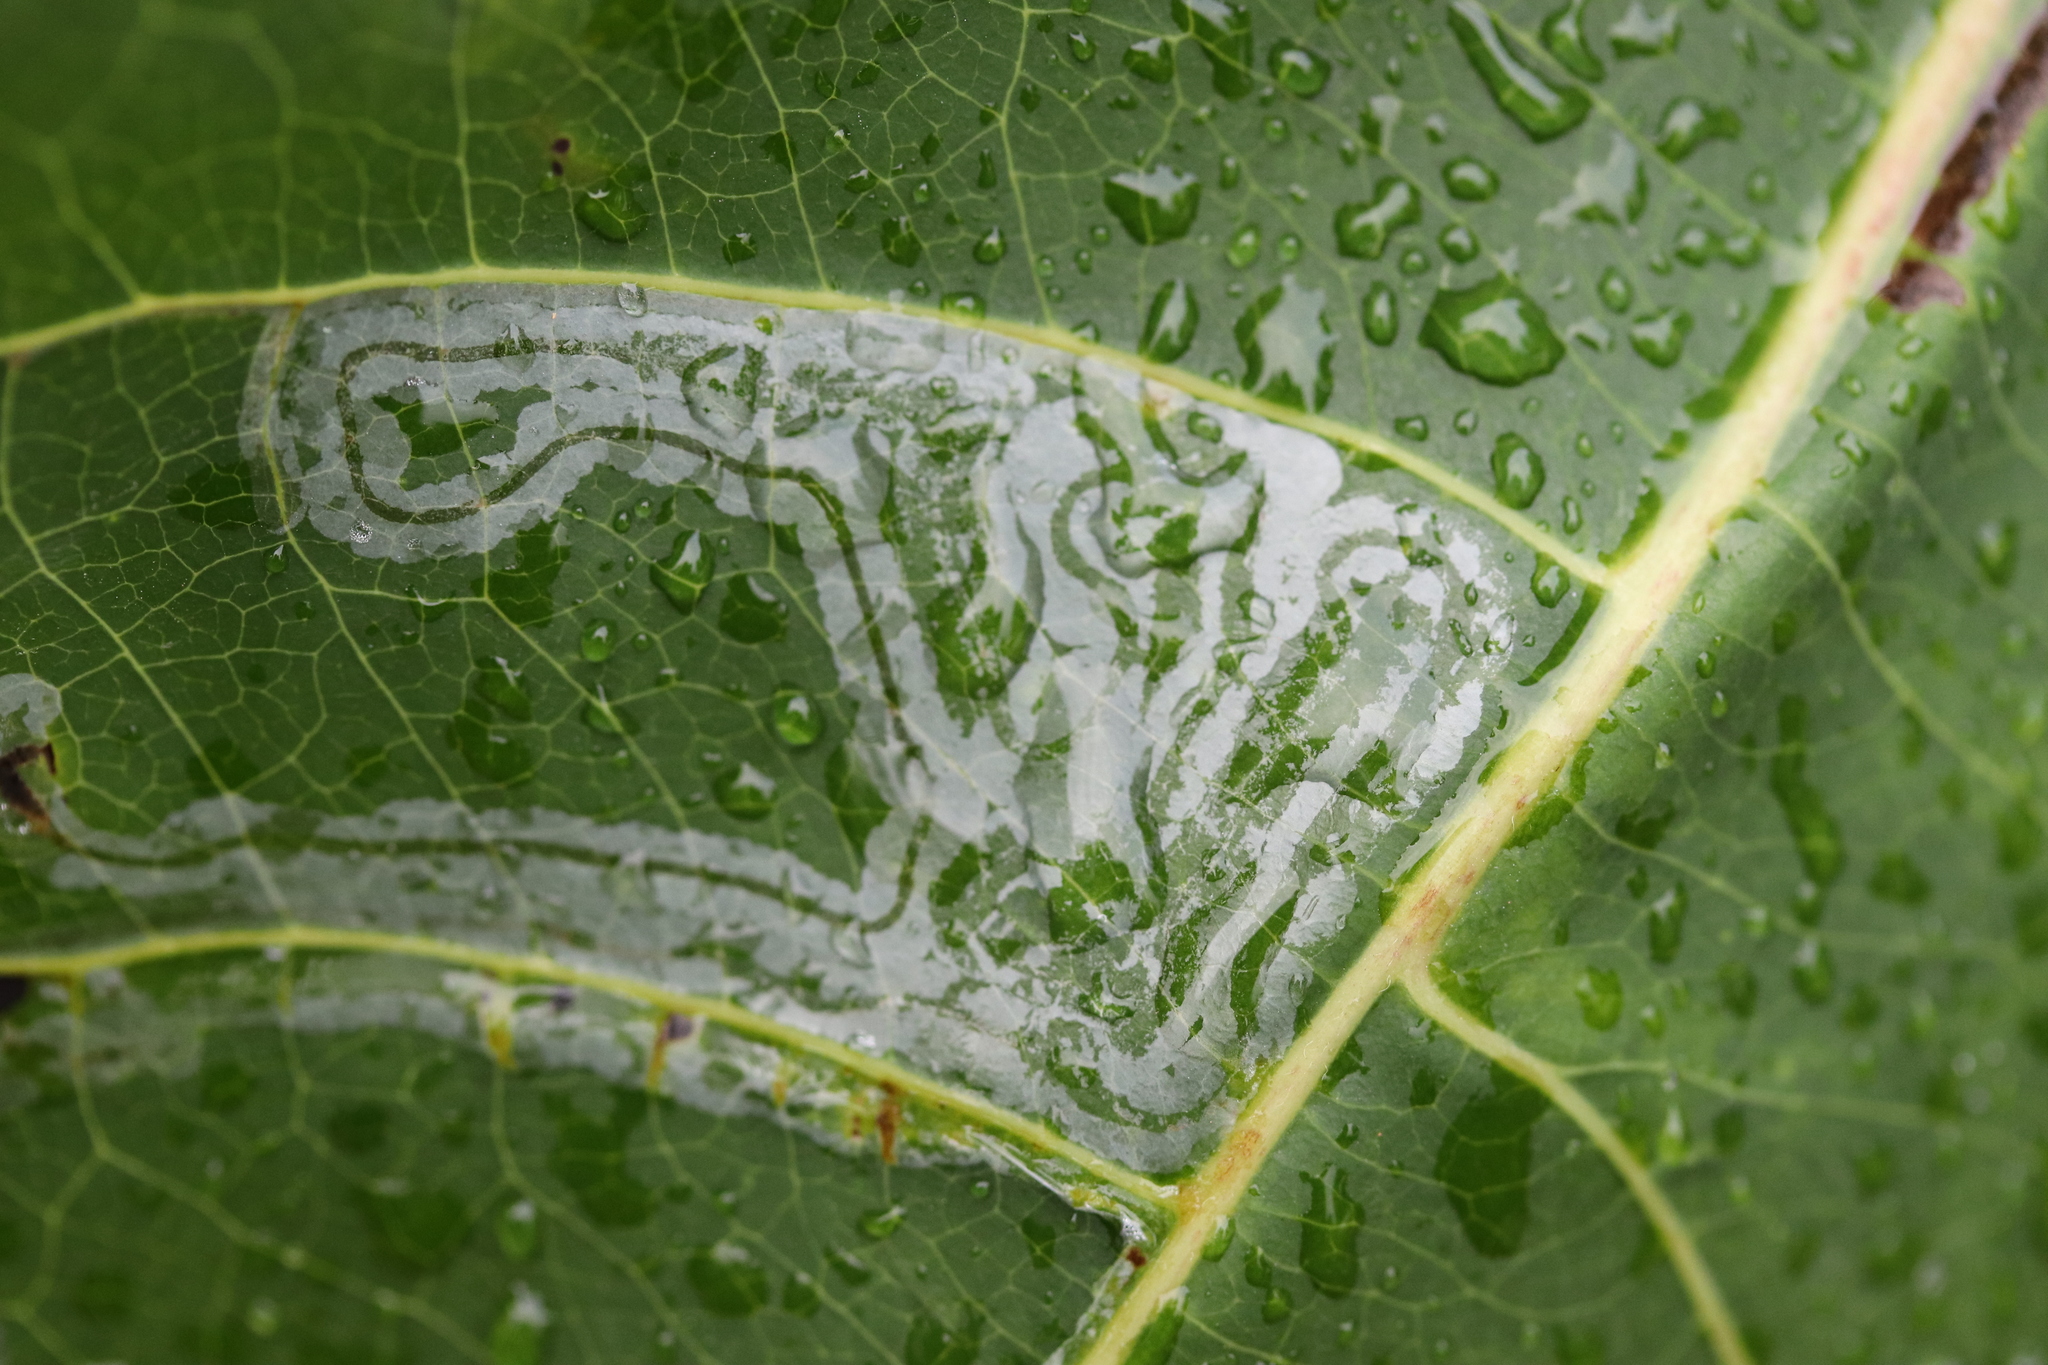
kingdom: Animalia
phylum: Arthropoda
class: Insecta
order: Lepidoptera
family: Gracillariidae
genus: Phyllocnistis
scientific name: Phyllocnistis populiella
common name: Aspen serpentine leafminer moth
